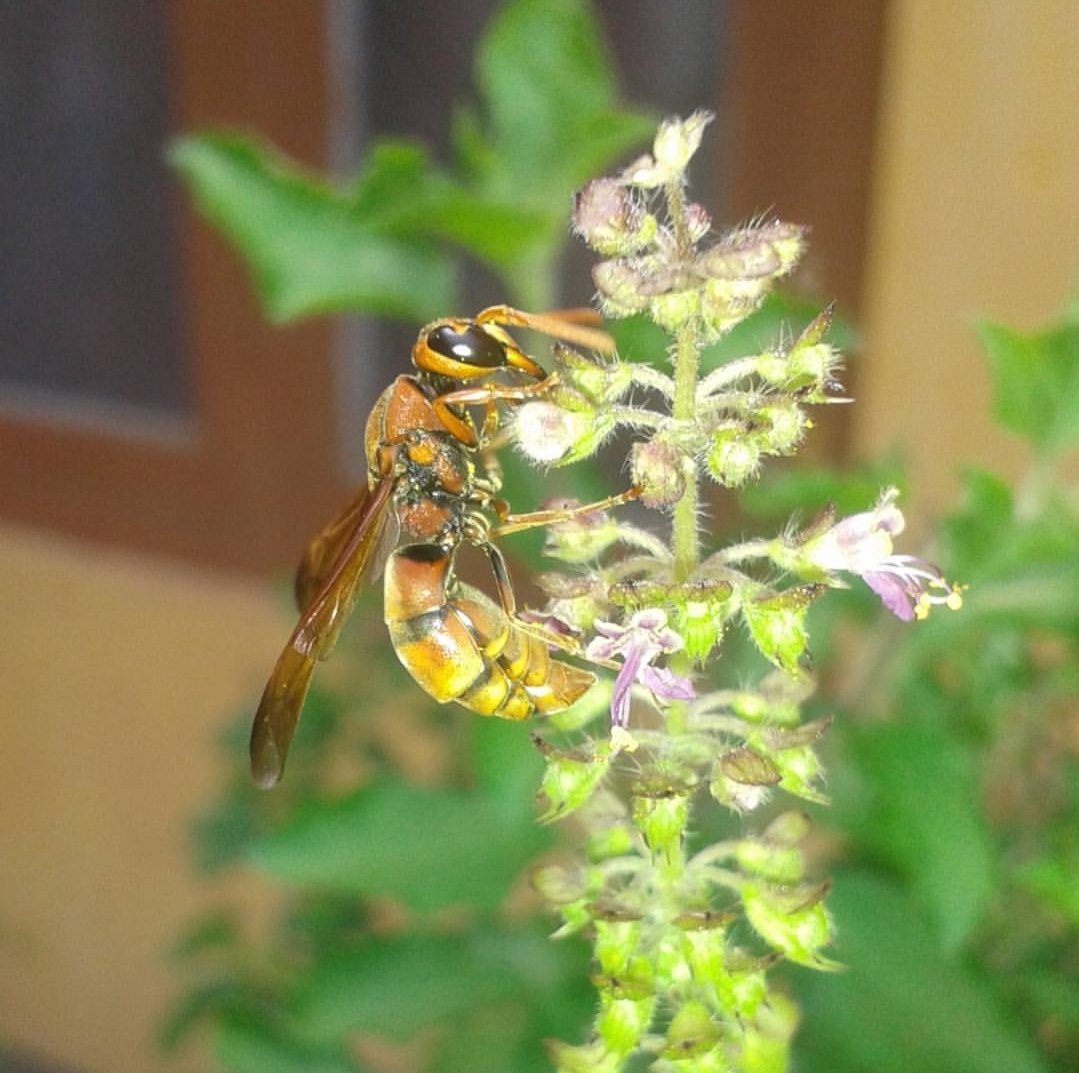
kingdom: Animalia
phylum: Arthropoda
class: Insecta
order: Hymenoptera
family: Eumenidae
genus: Antodynerus
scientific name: Antodynerus limbatus
